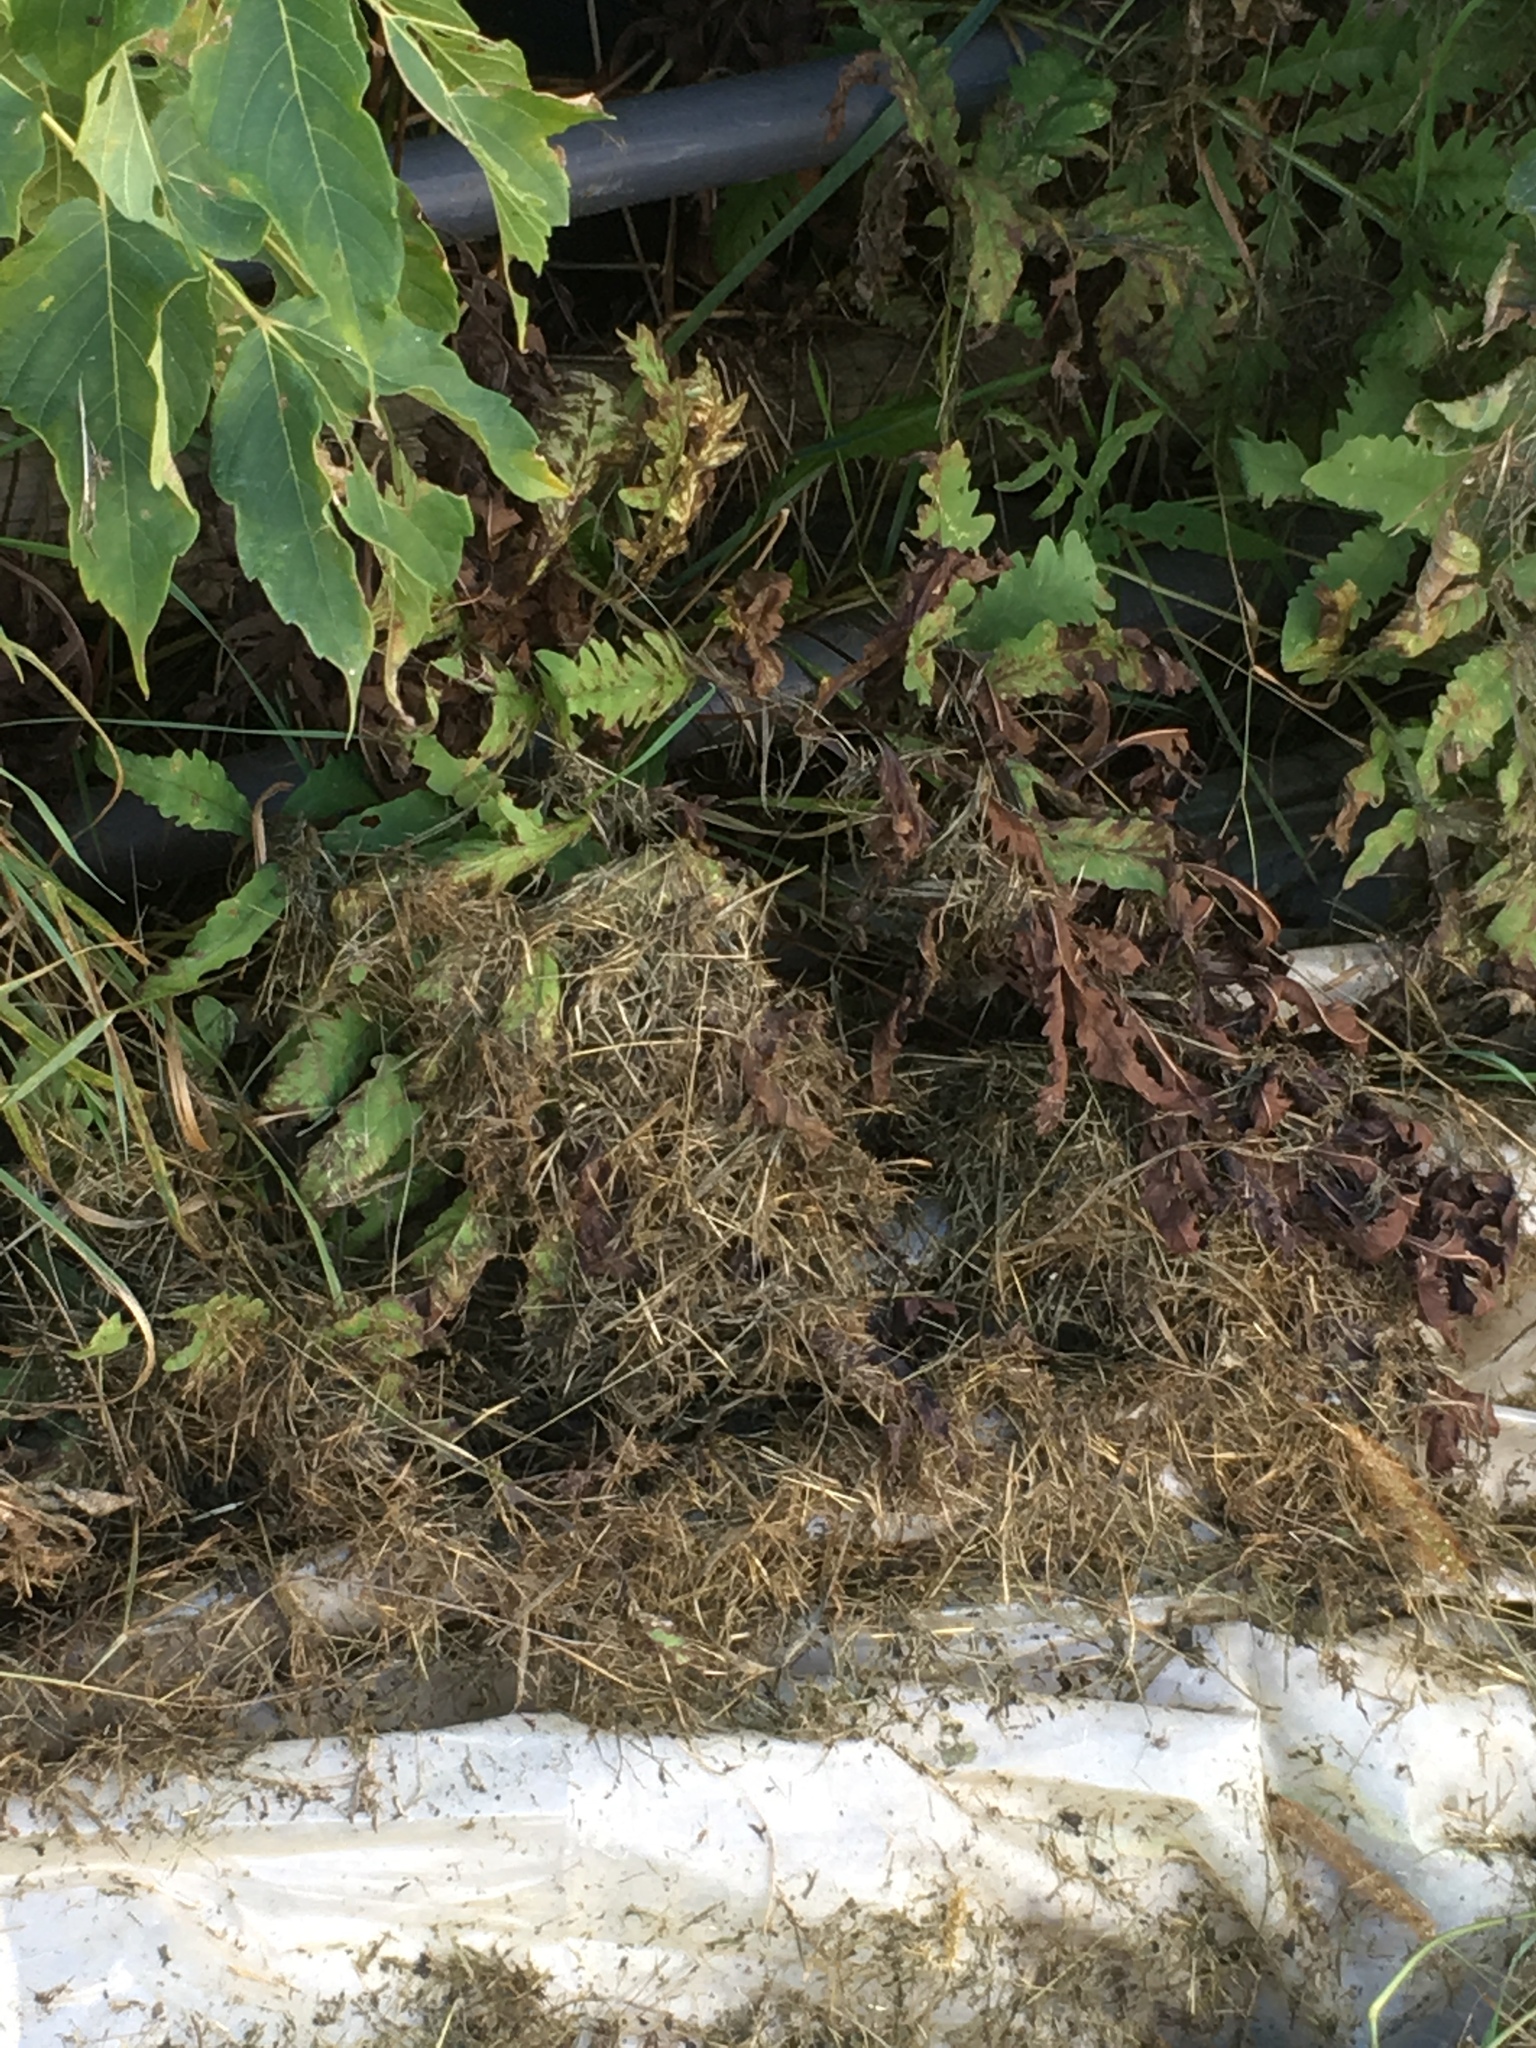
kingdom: Plantae
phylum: Tracheophyta
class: Polypodiopsida
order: Polypodiales
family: Onocleaceae
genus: Onoclea
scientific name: Onoclea sensibilis
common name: Sensitive fern
